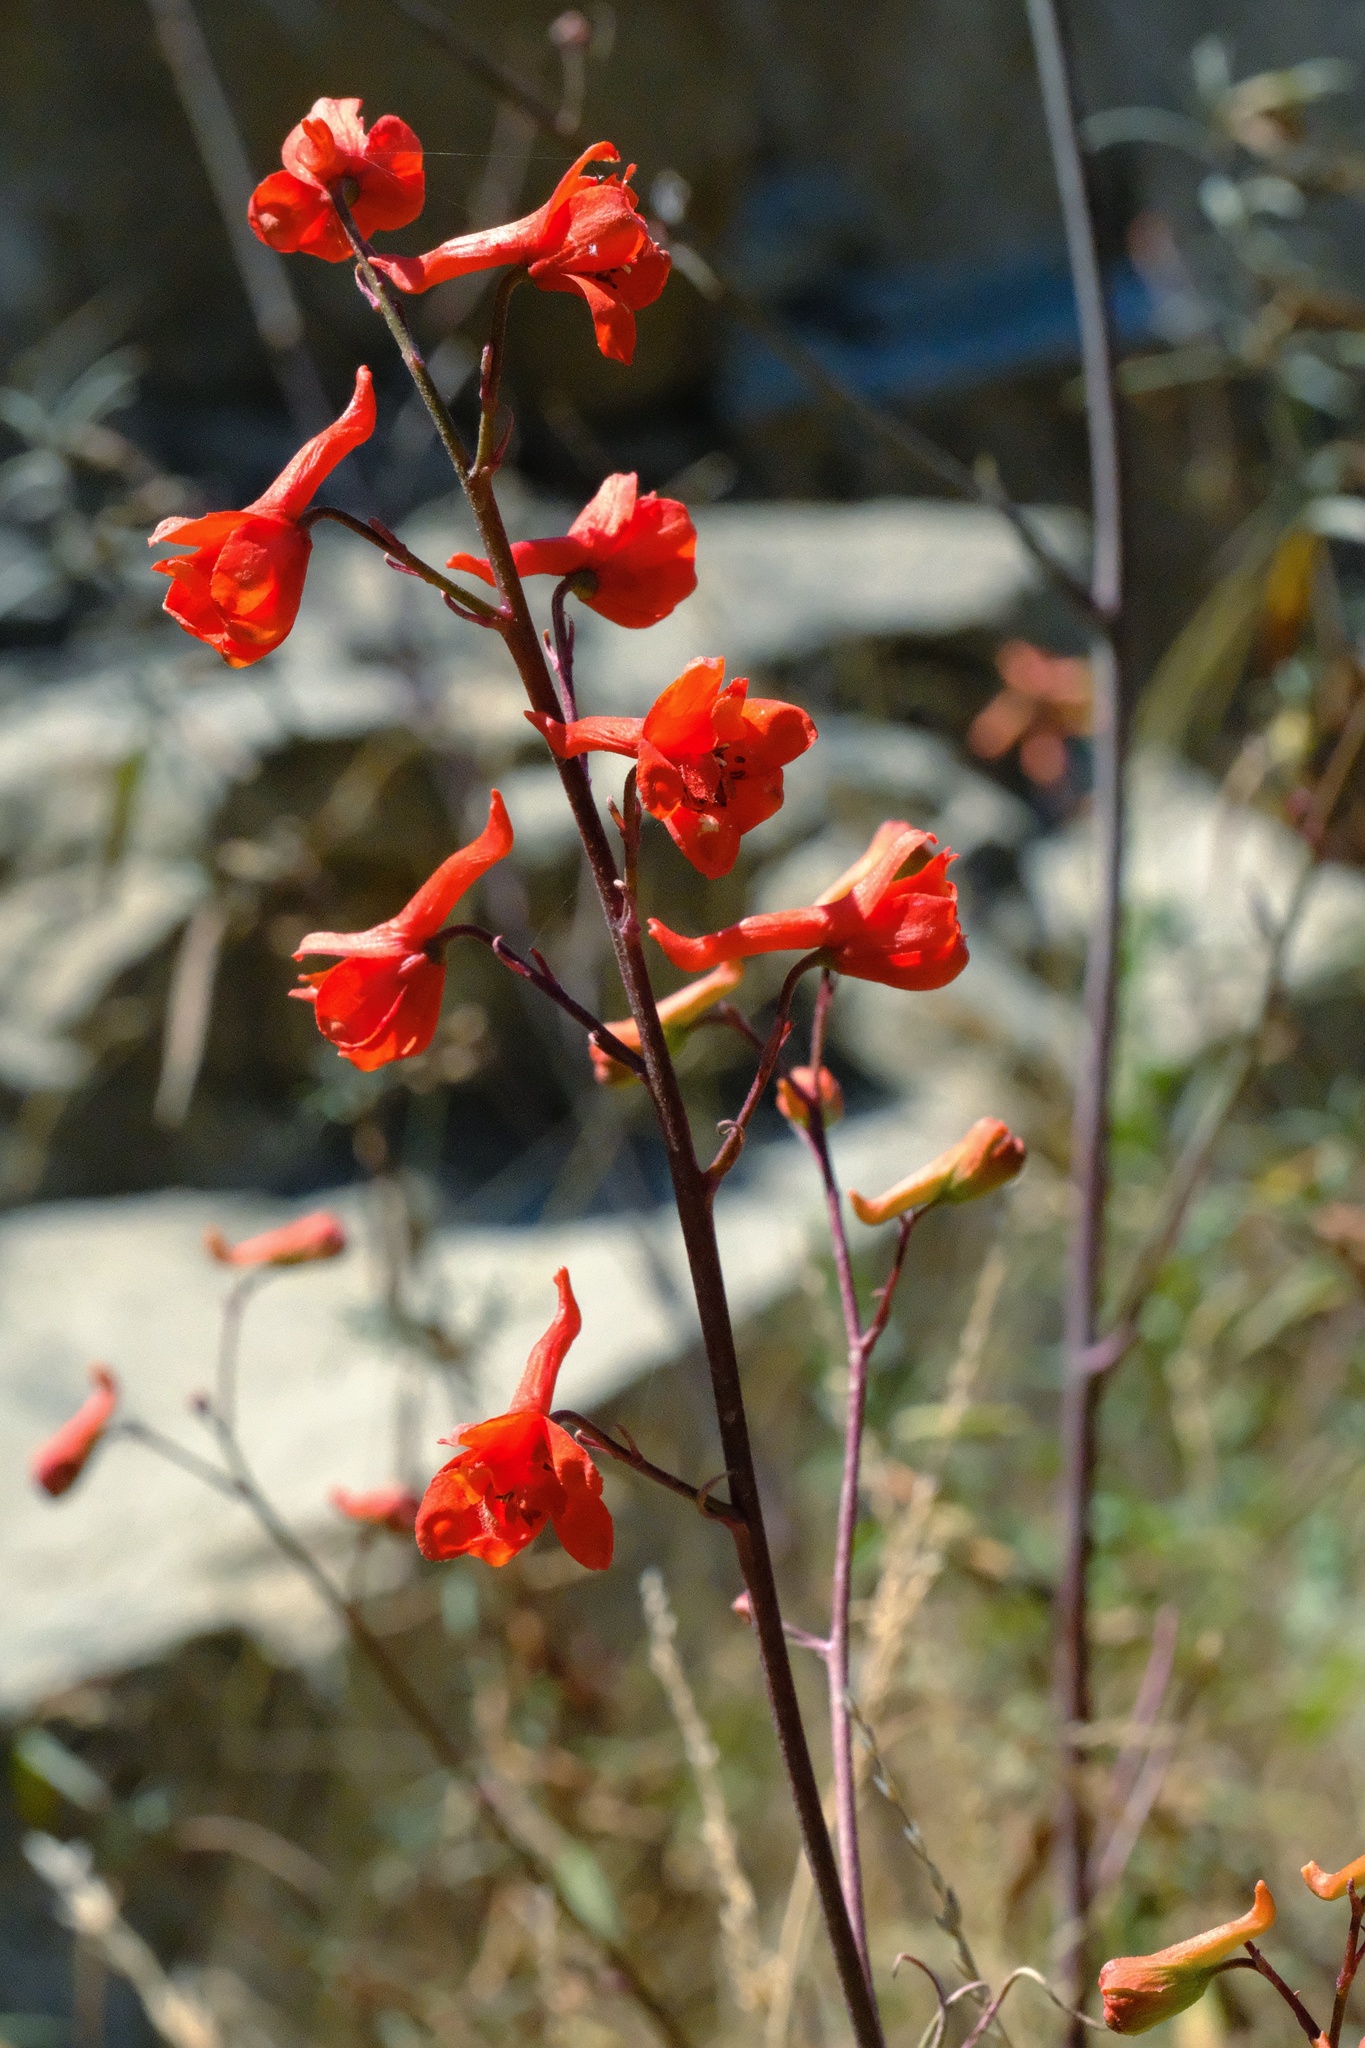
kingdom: Plantae
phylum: Tracheophyta
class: Magnoliopsida
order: Ranunculales
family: Ranunculaceae
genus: Delphinium
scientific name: Delphinium cardinale
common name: Scarlet larkspur
